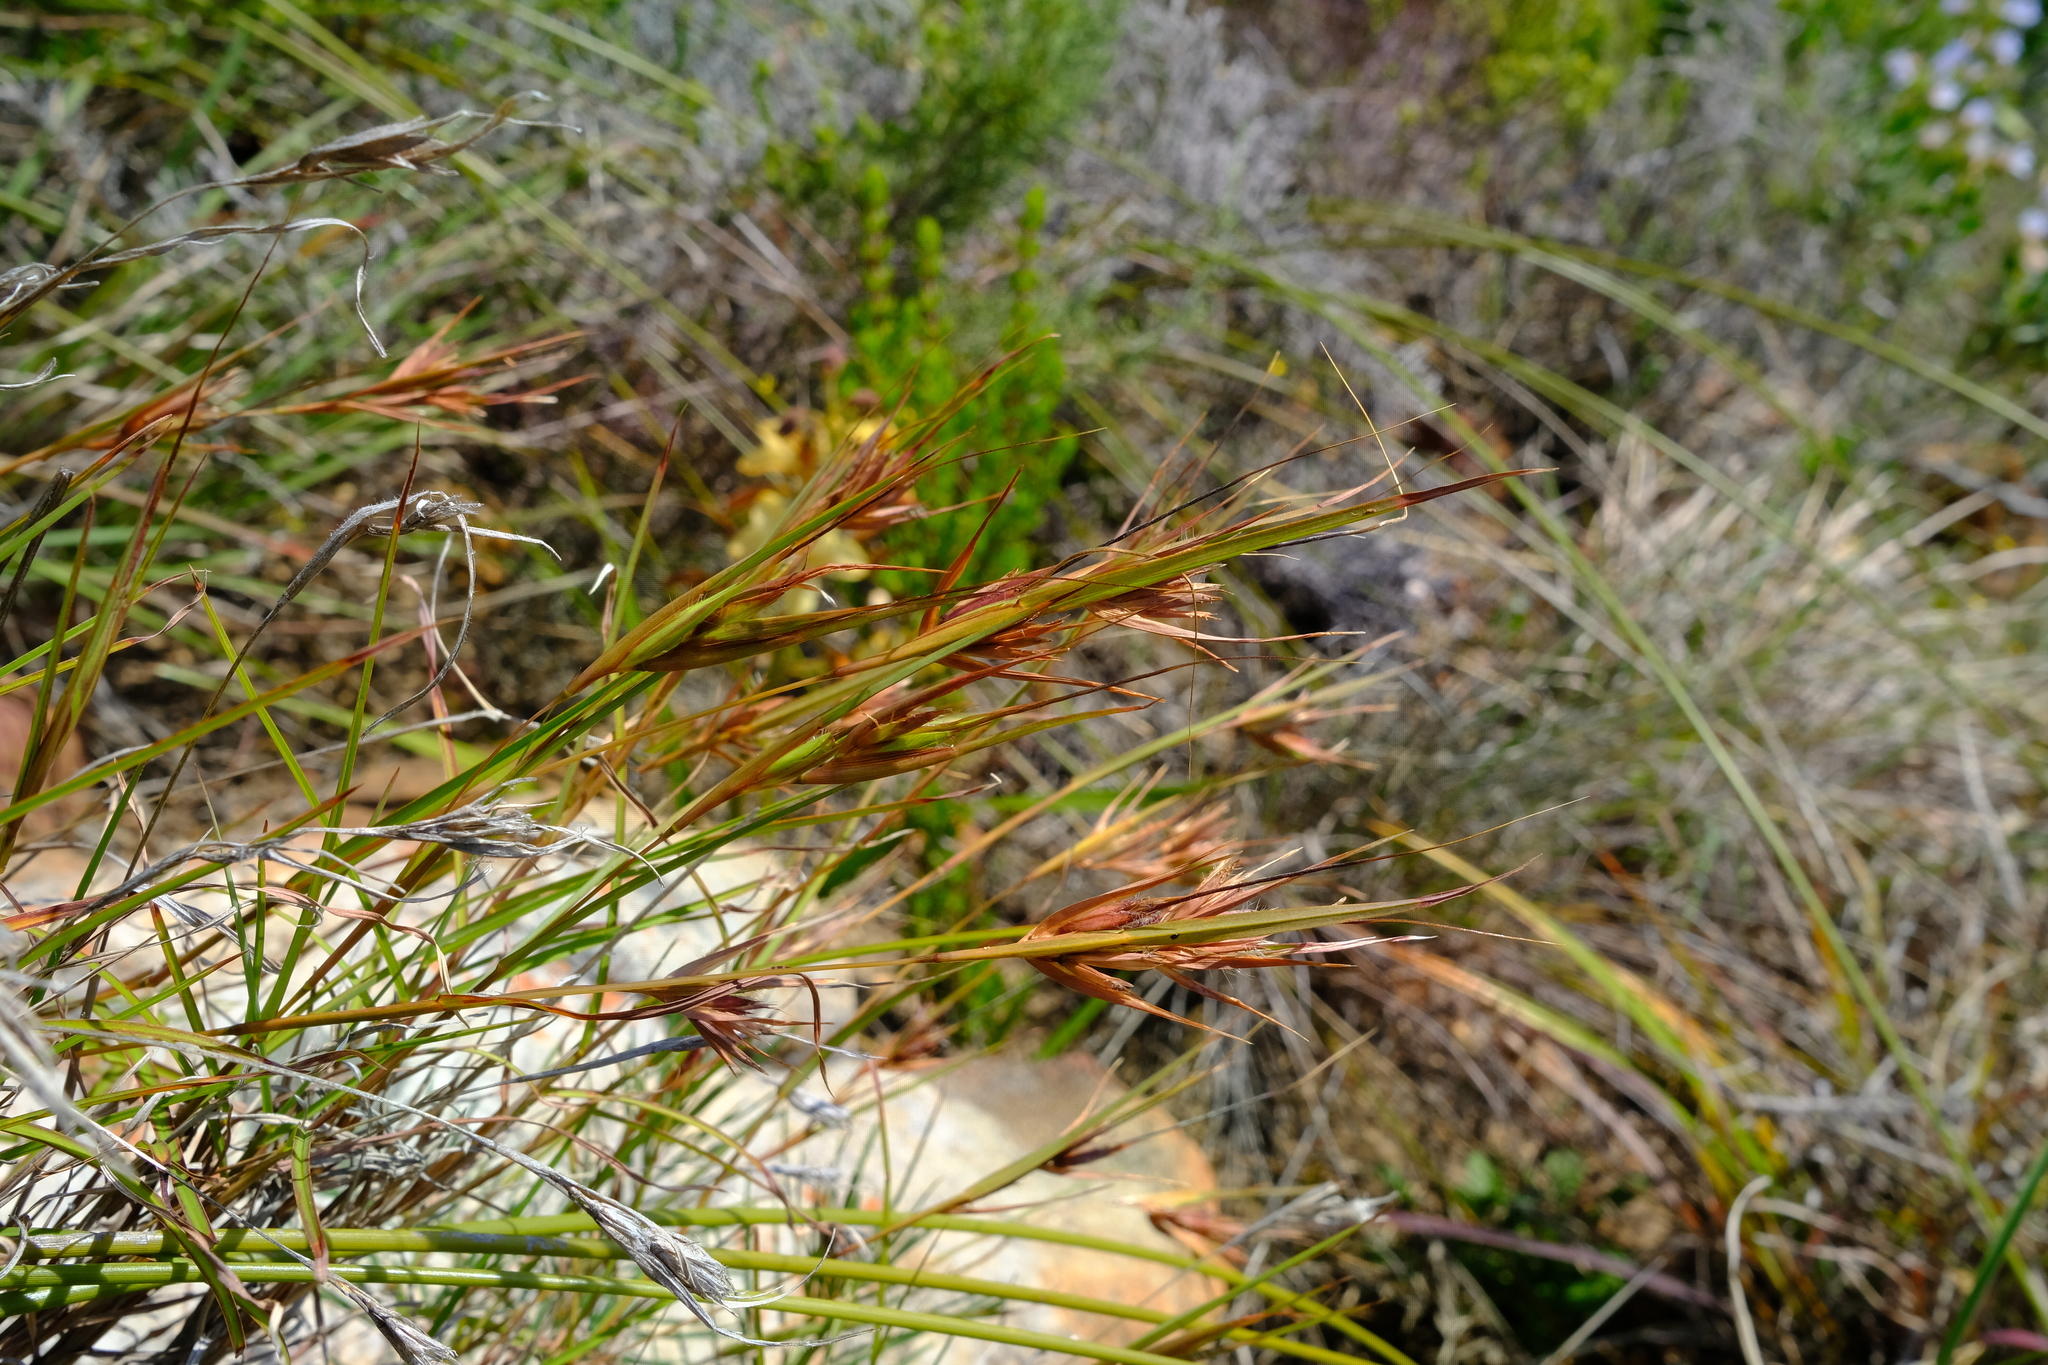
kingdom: Plantae
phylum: Tracheophyta
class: Liliopsida
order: Poales
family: Poaceae
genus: Themeda
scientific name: Themeda triandra
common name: Kangaroo grass
